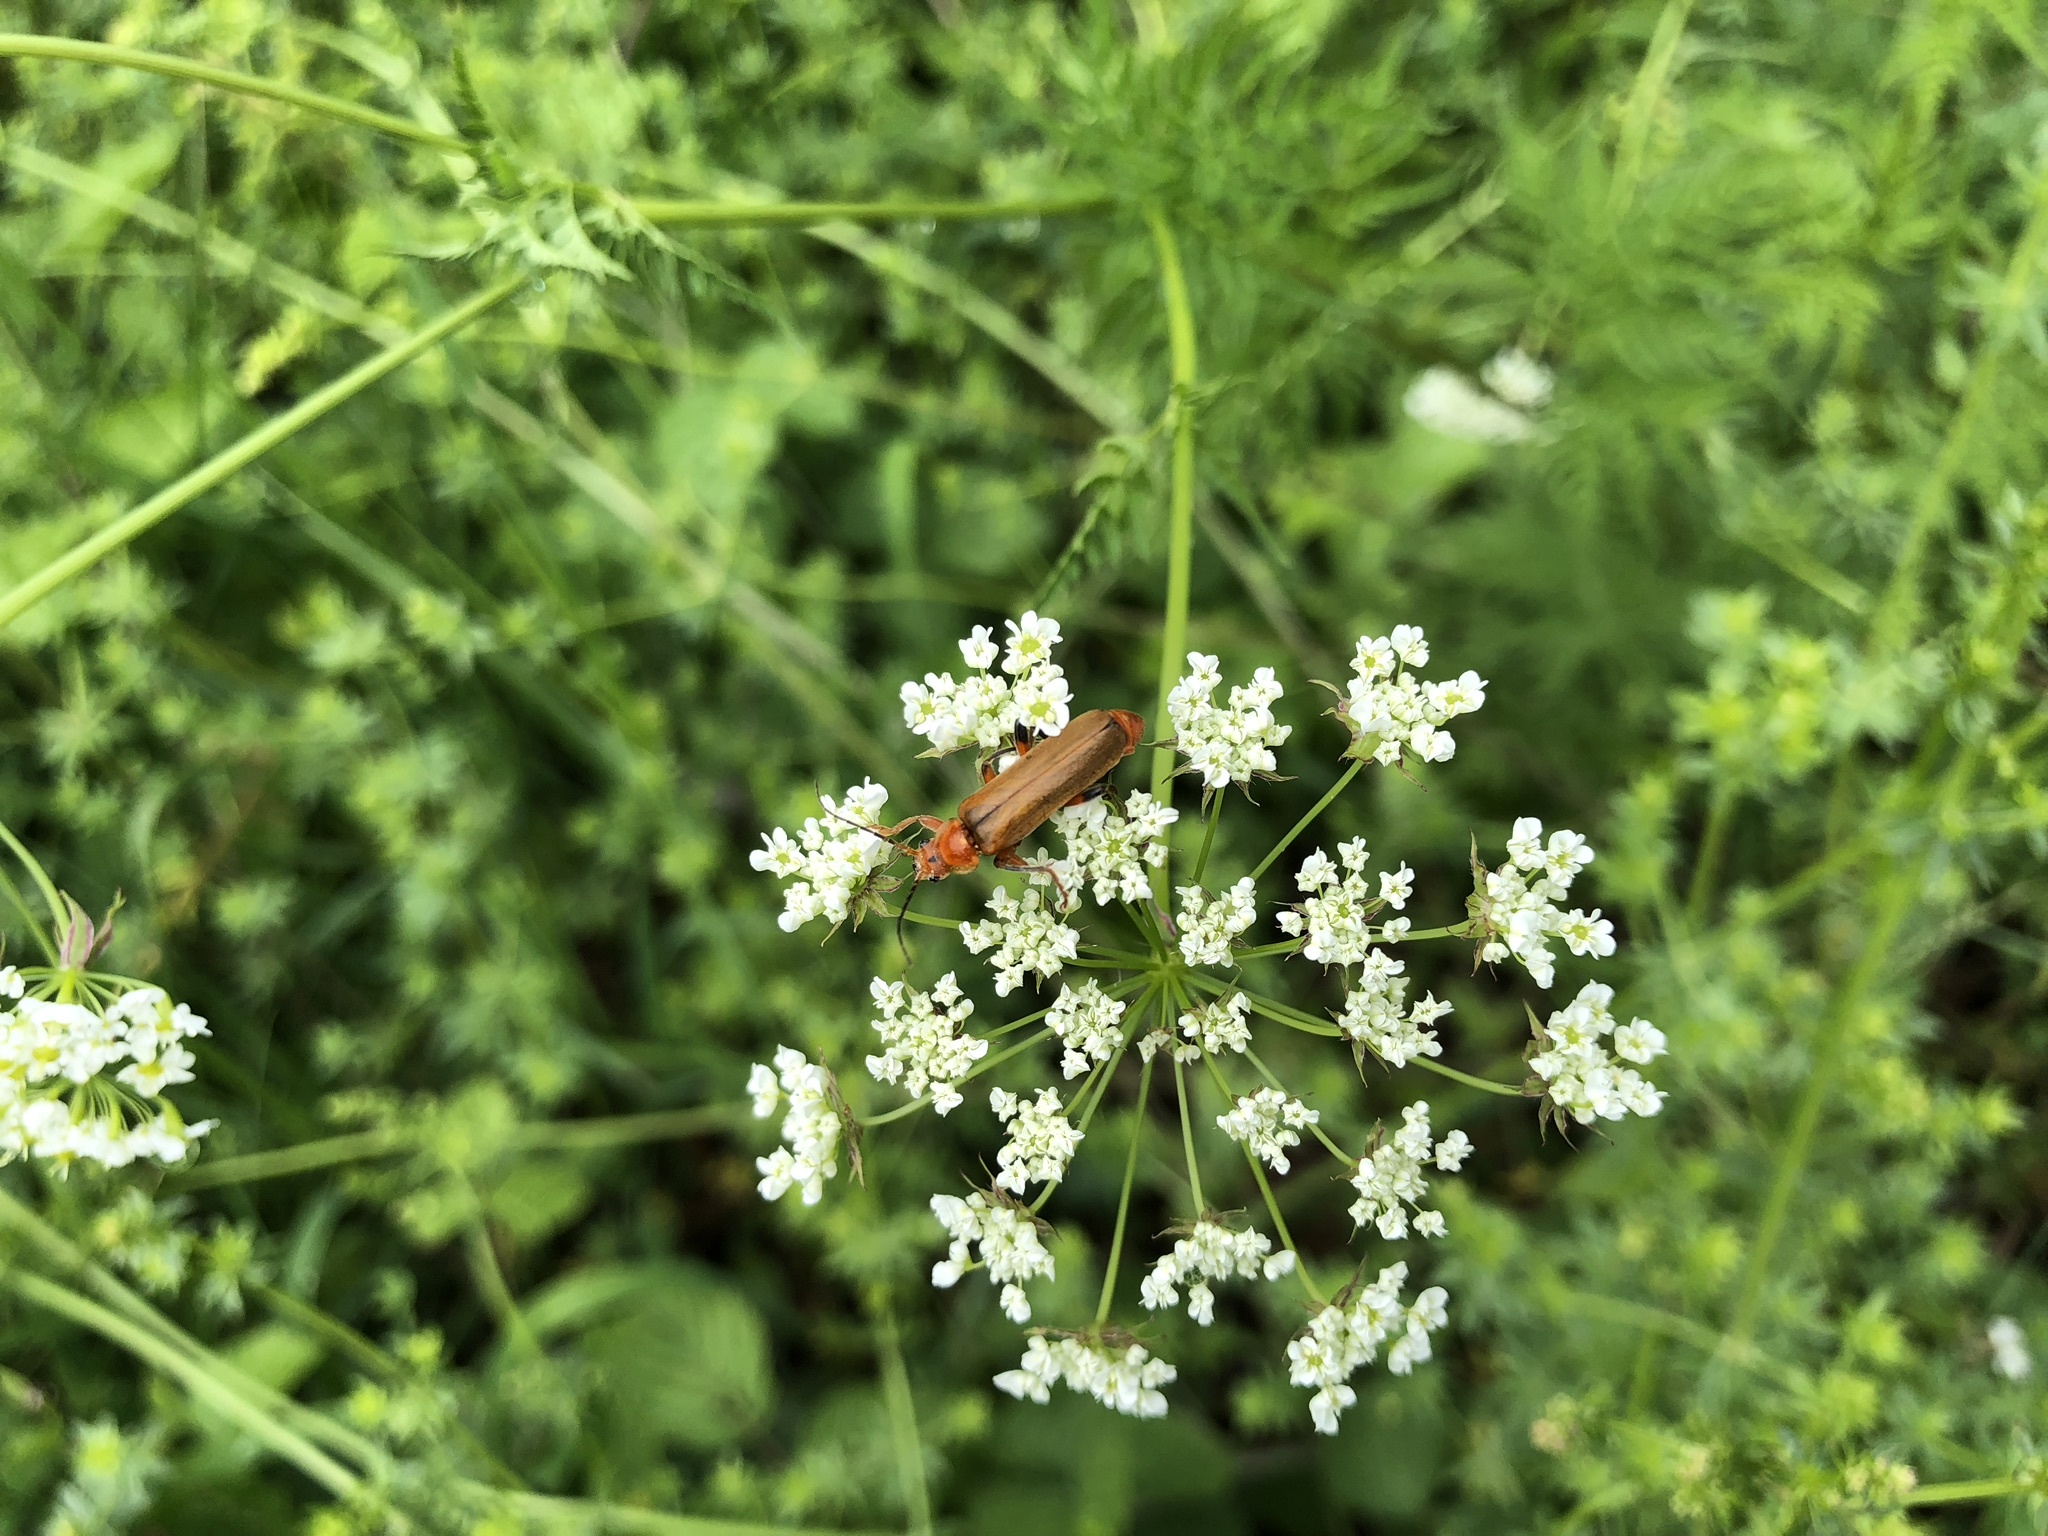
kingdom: Animalia
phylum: Arthropoda
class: Insecta
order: Coleoptera
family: Cantharidae
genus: Cantharis
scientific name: Cantharis livida
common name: Livid soldier beetle
